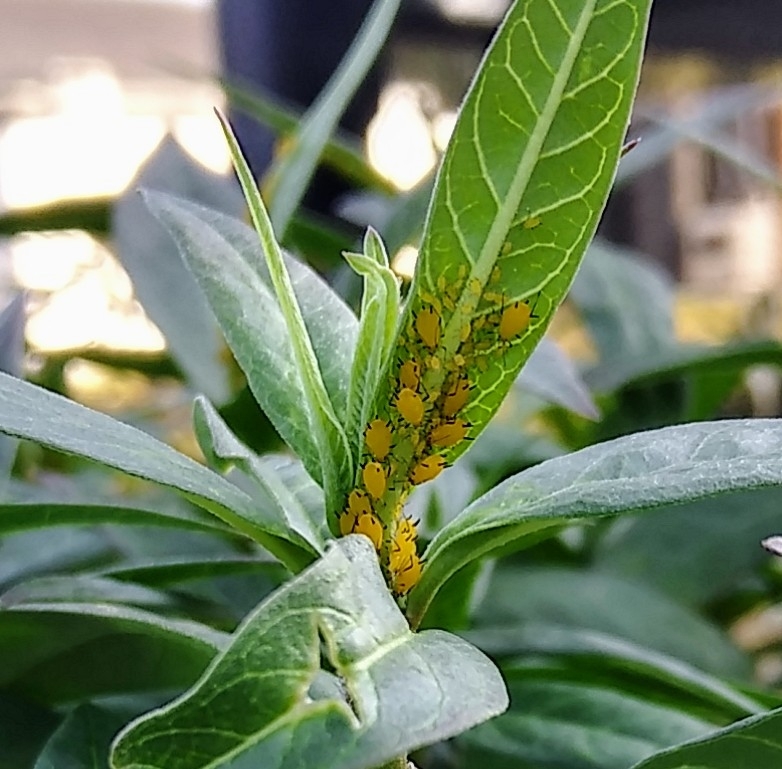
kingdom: Animalia
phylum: Arthropoda
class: Insecta
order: Hemiptera
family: Aphididae
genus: Aphis
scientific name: Aphis nerii
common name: Oleander aphid
